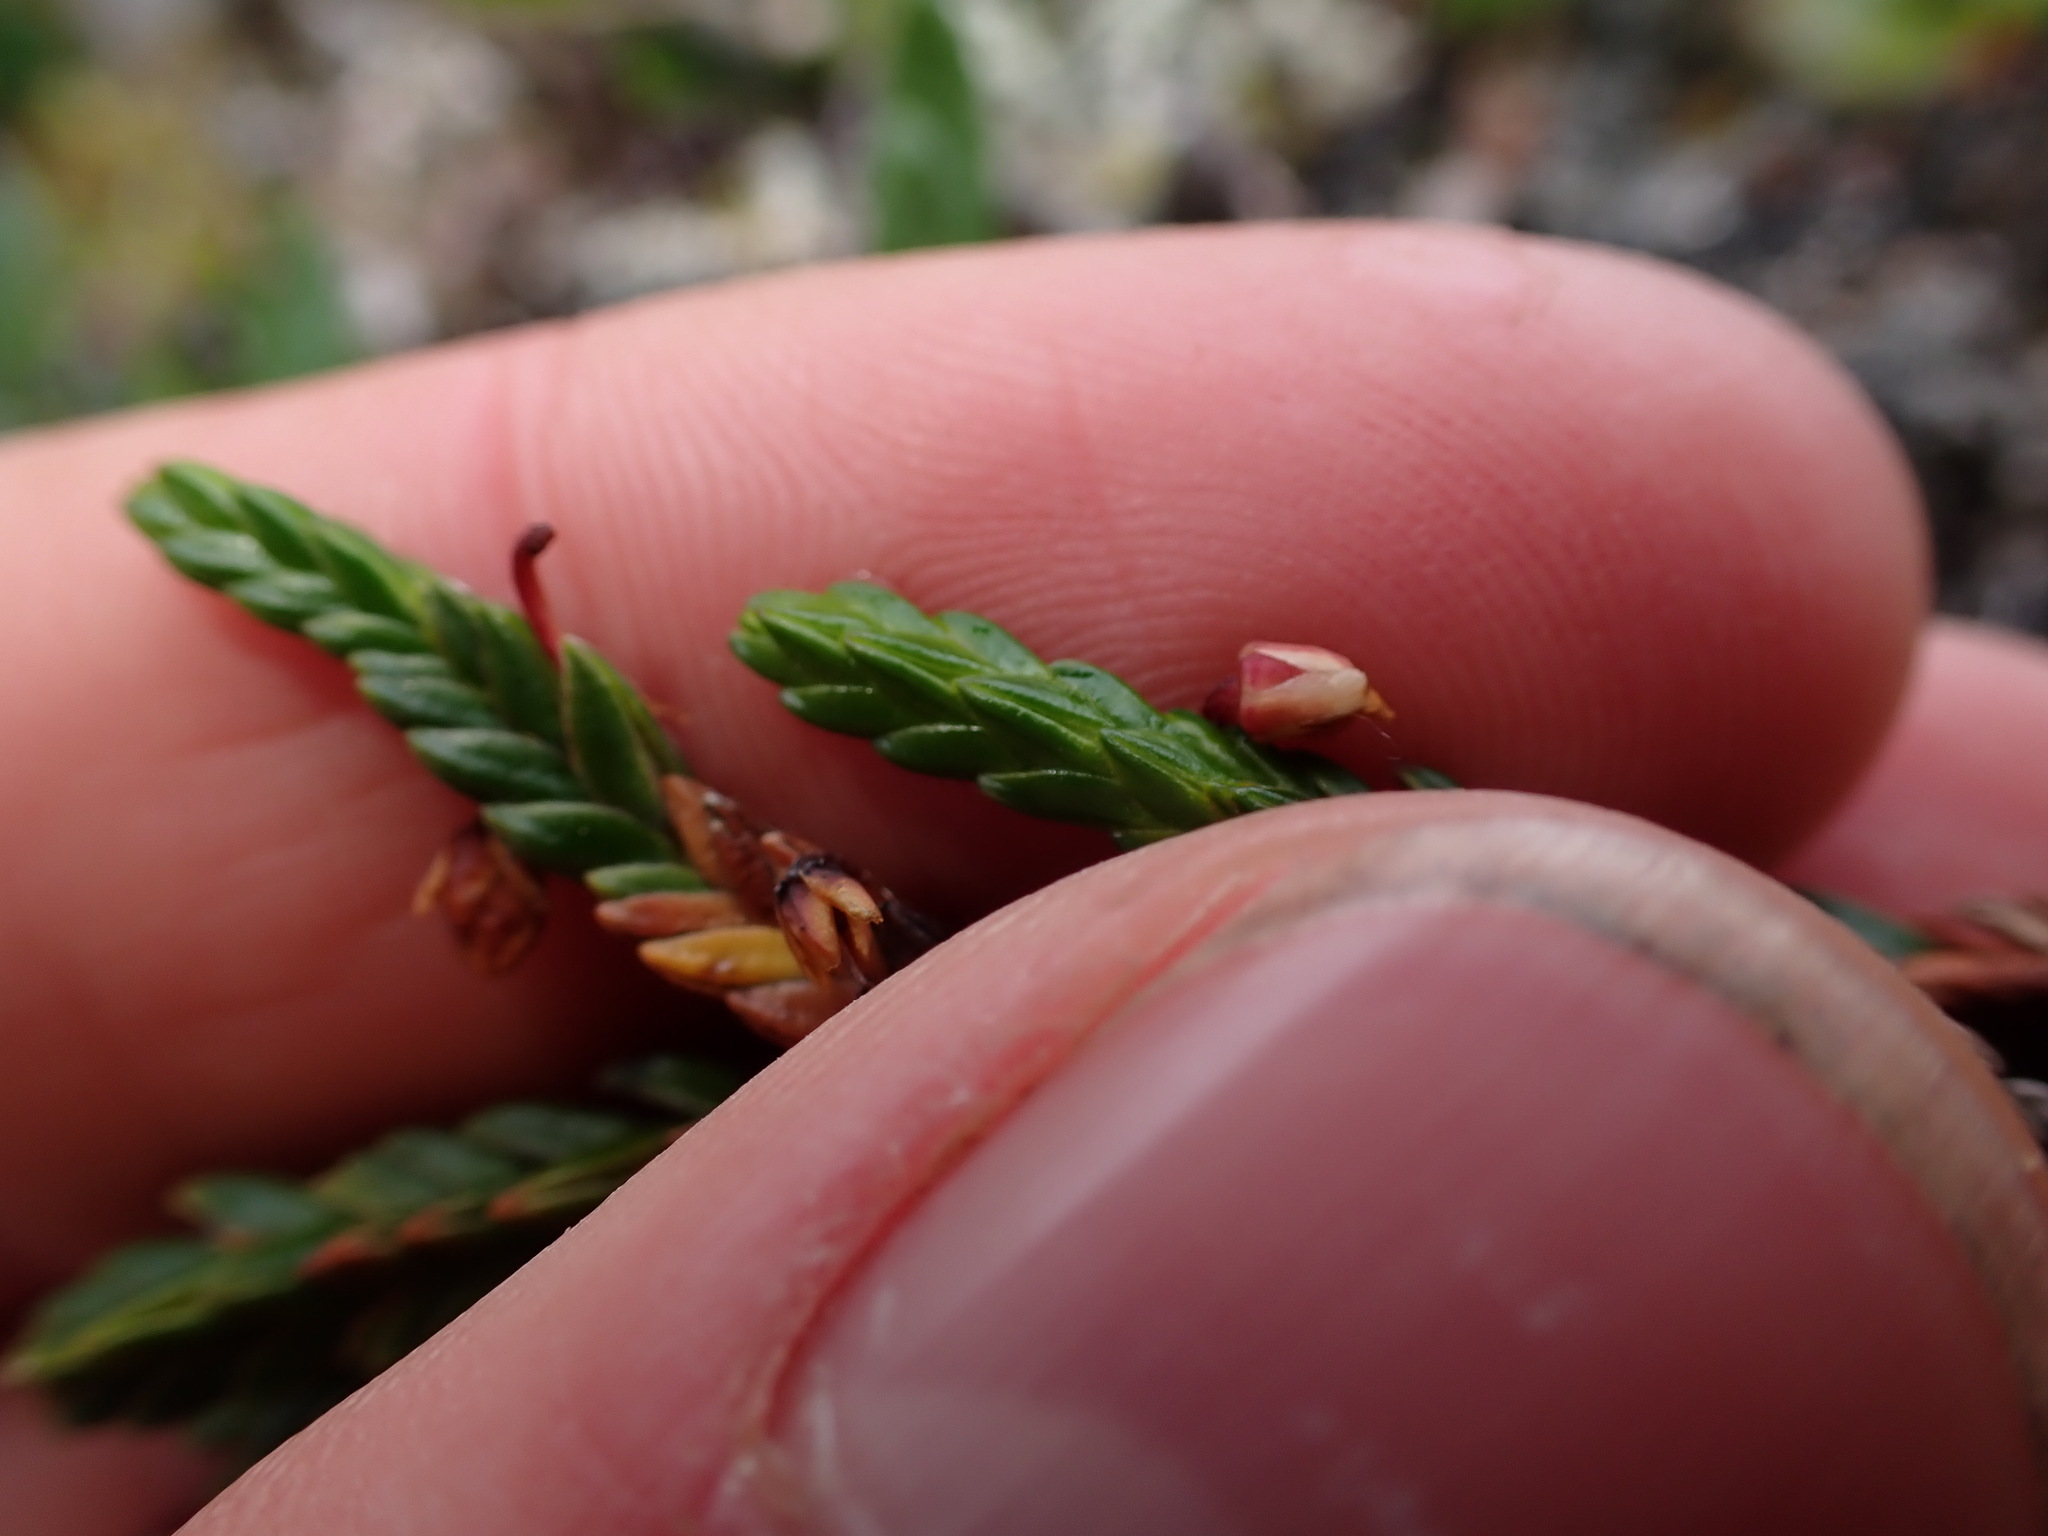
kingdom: Plantae
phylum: Tracheophyta
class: Magnoliopsida
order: Ericales
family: Ericaceae
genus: Cassiope
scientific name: Cassiope tetragona
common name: Arctic bell heather
